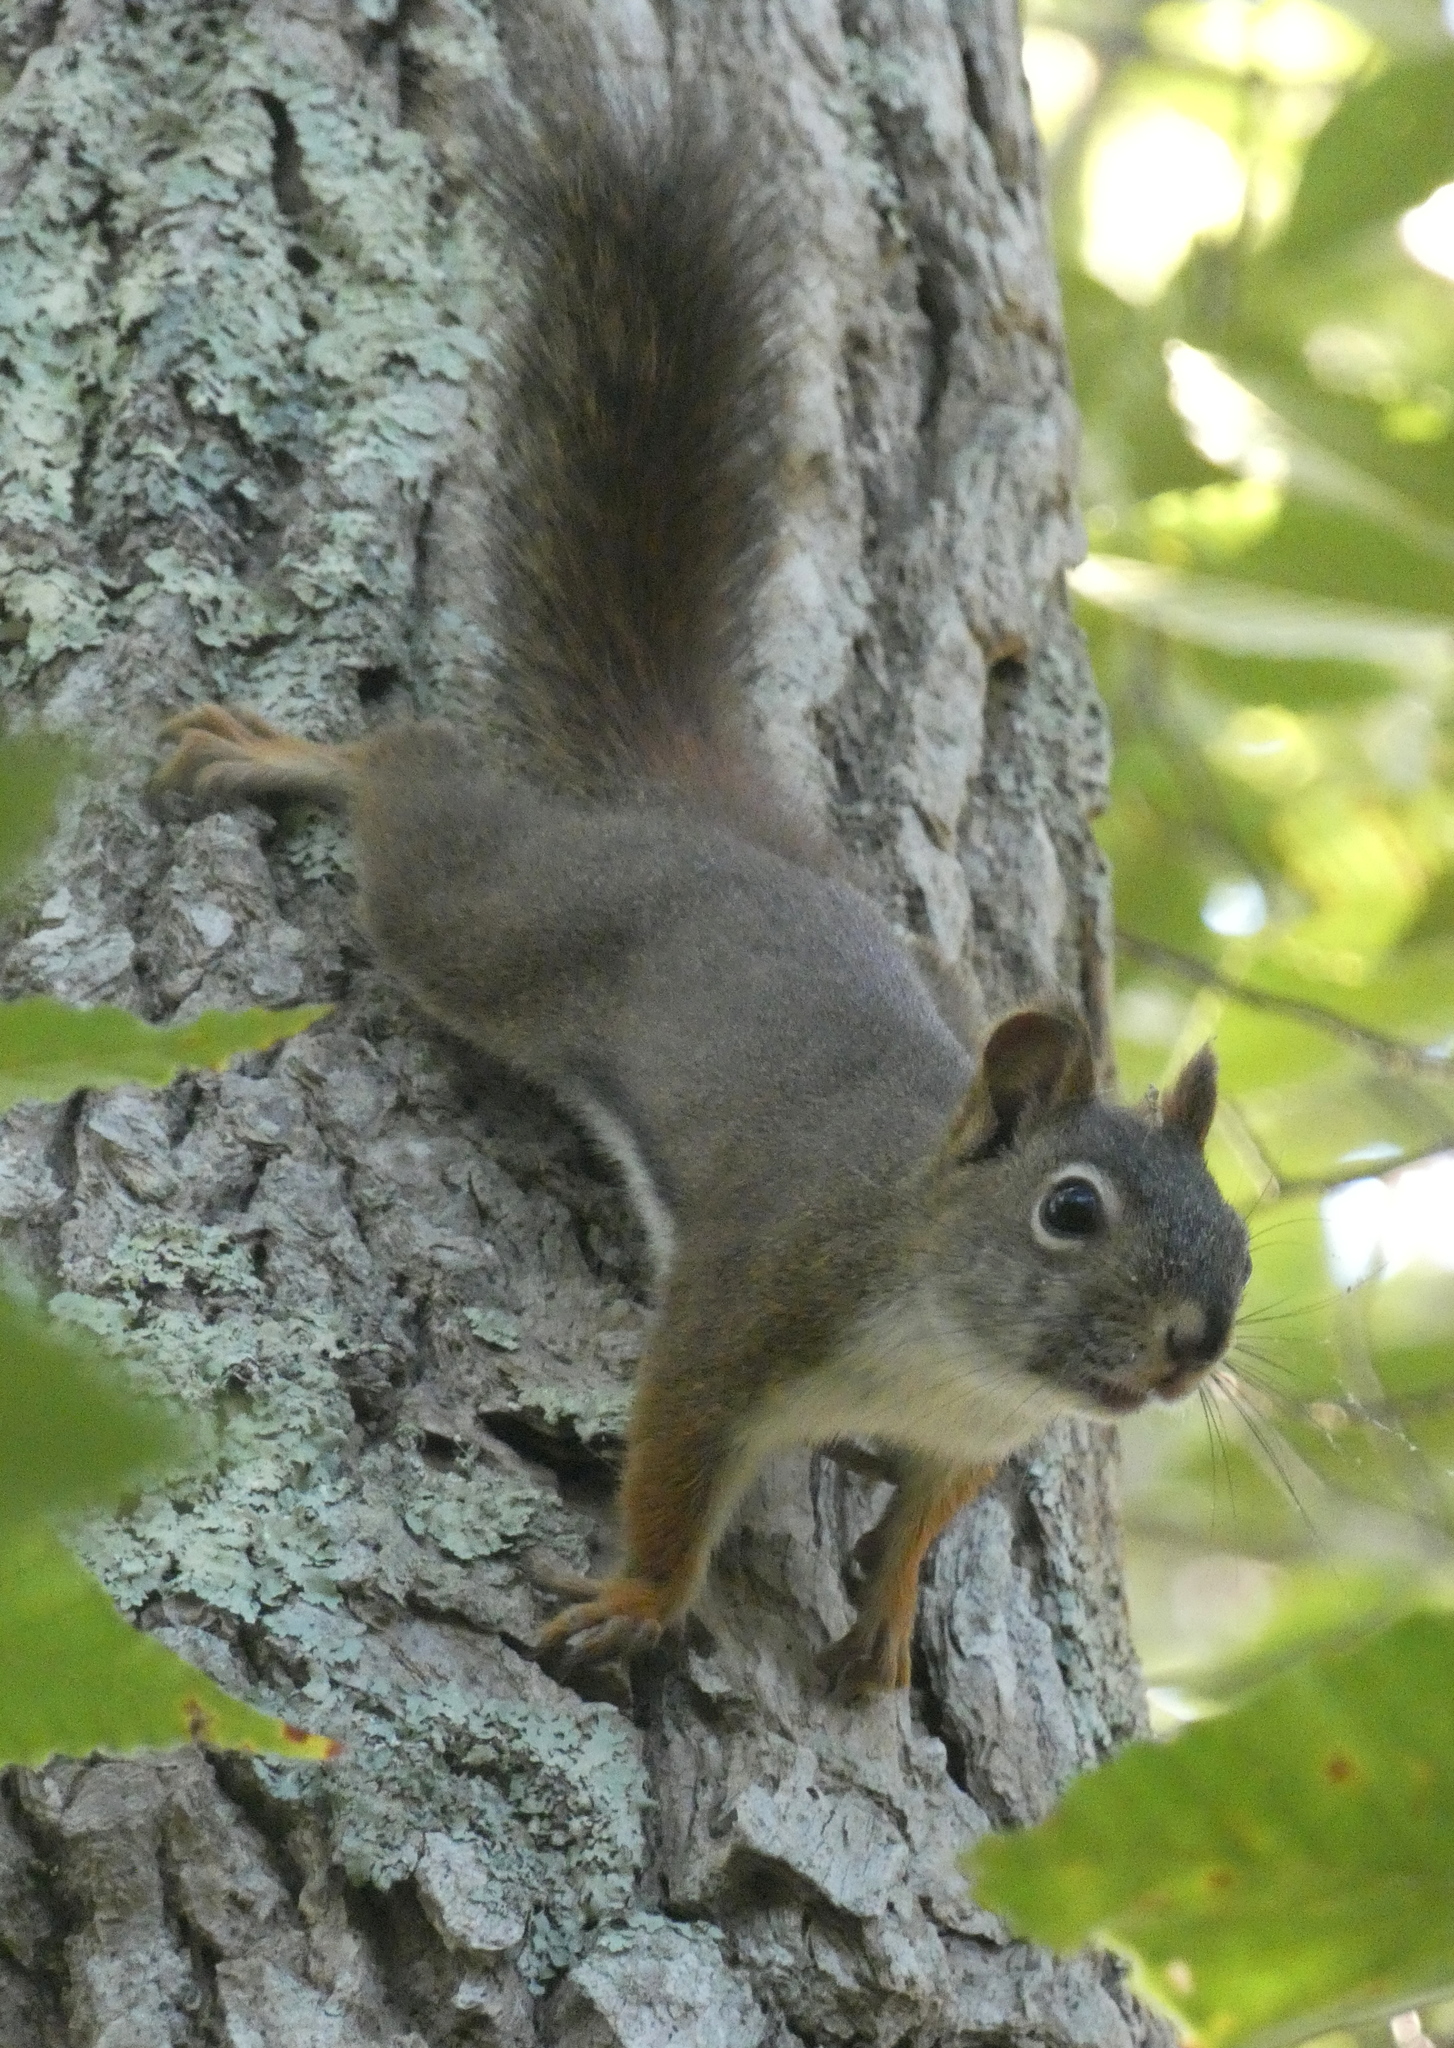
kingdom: Animalia
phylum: Chordata
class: Mammalia
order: Rodentia
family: Sciuridae
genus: Tamiasciurus
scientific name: Tamiasciurus hudsonicus
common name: Red squirrel
